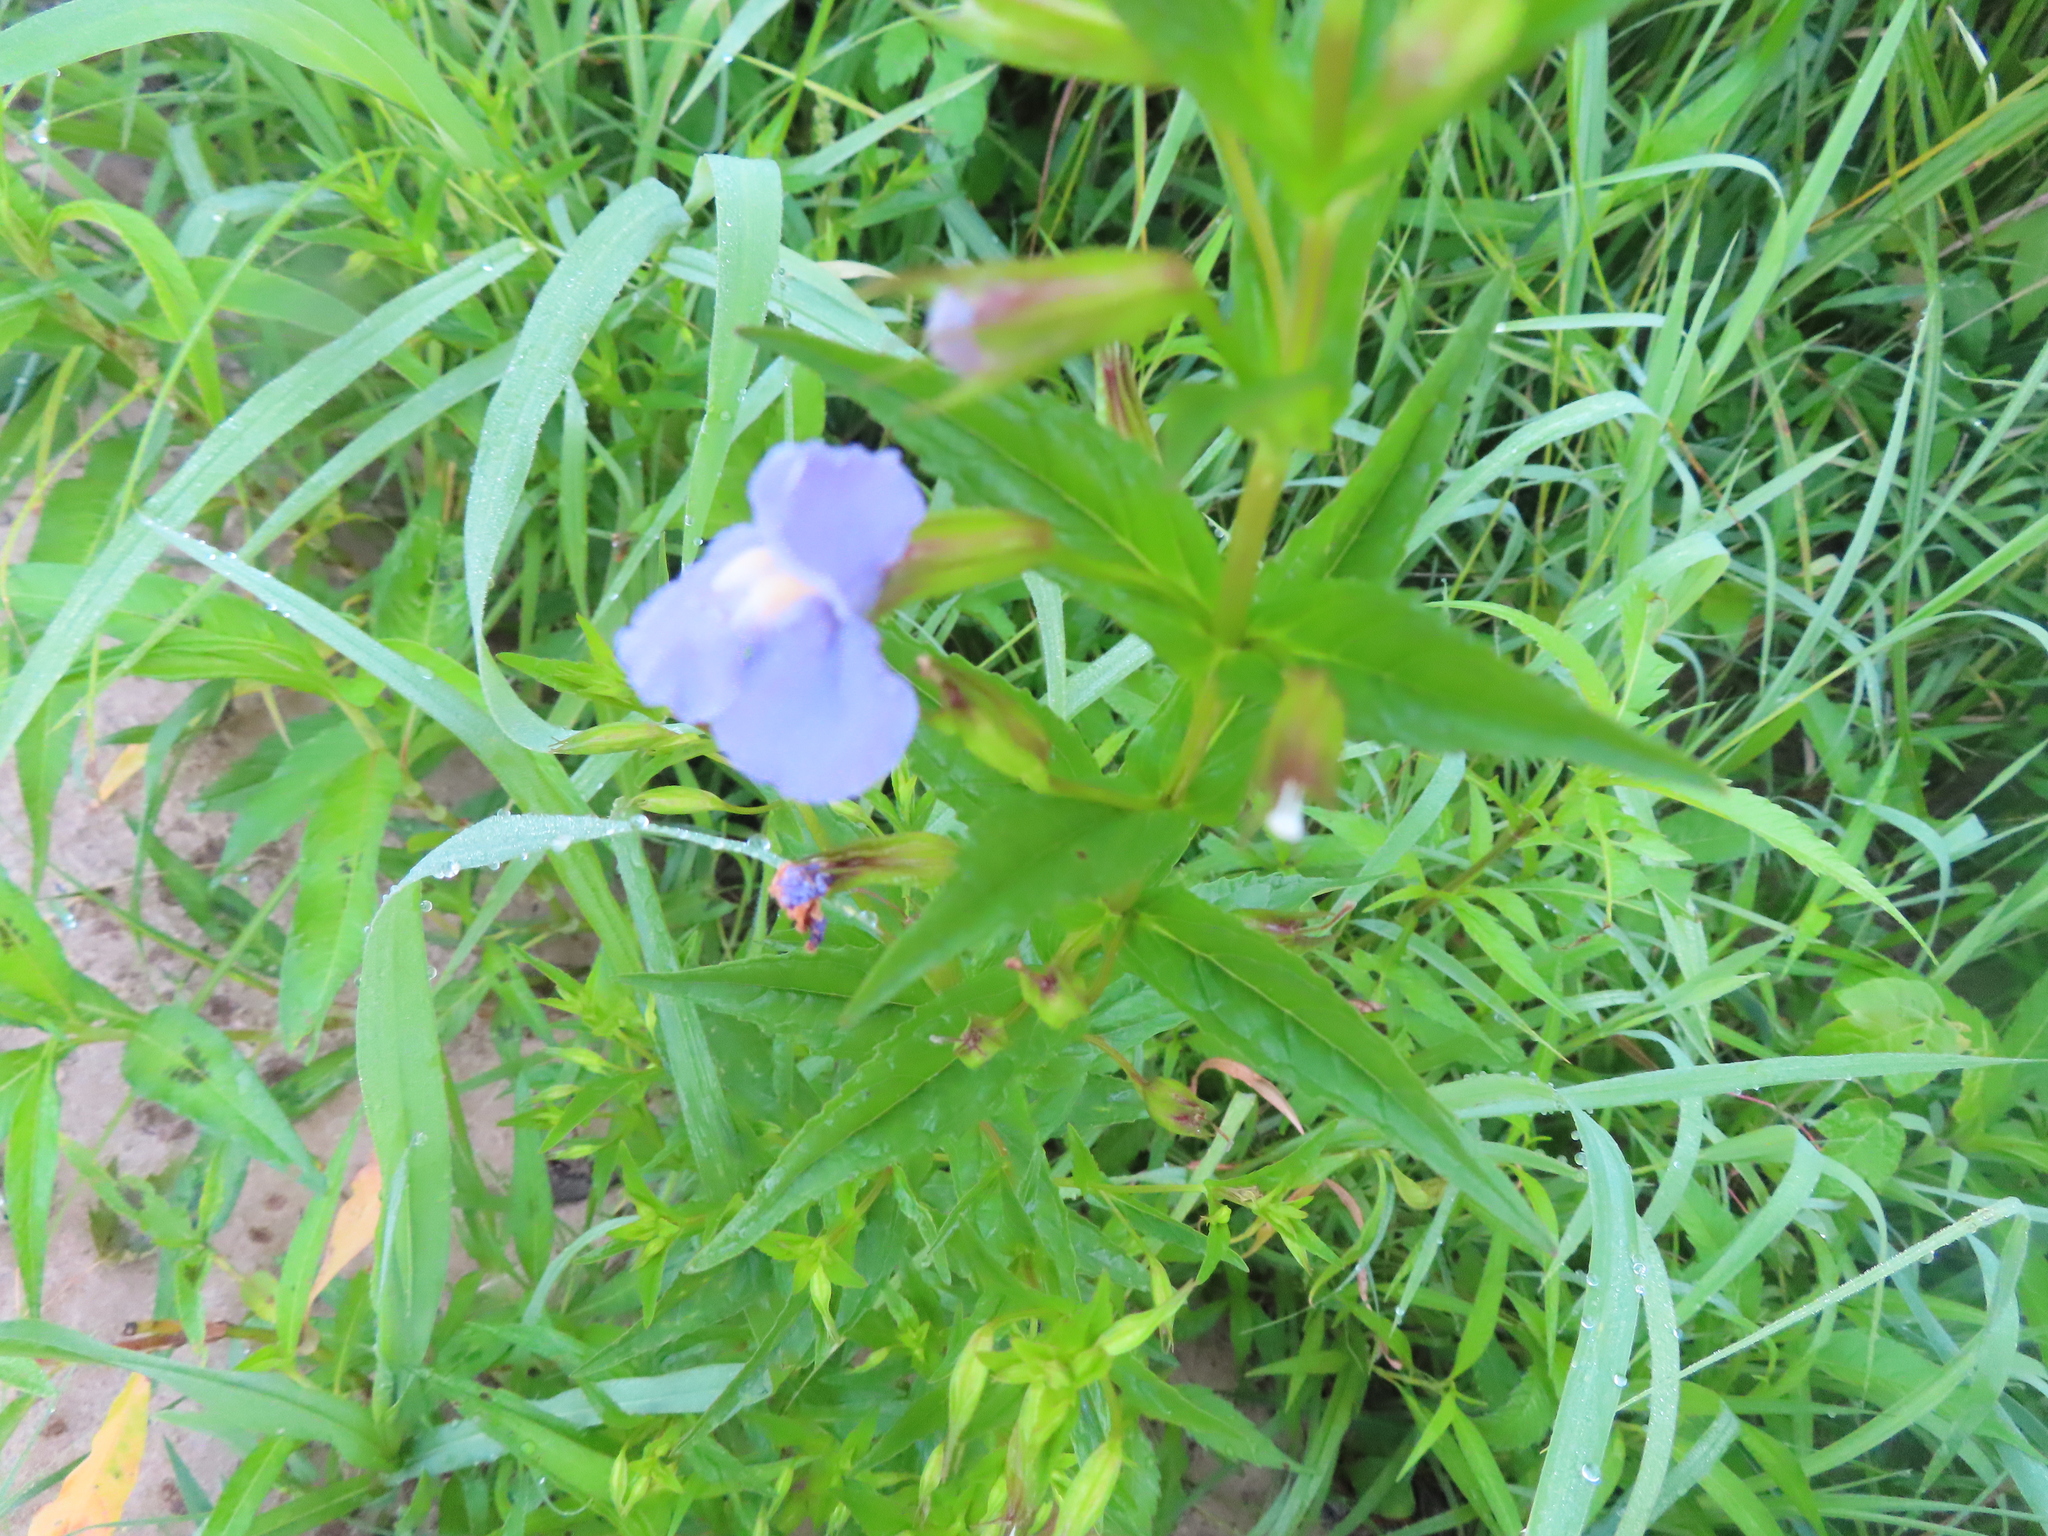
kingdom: Plantae
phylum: Tracheophyta
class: Magnoliopsida
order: Lamiales
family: Phrymaceae
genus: Mimulus
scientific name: Mimulus ringens
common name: Allegheny monkeyflower
